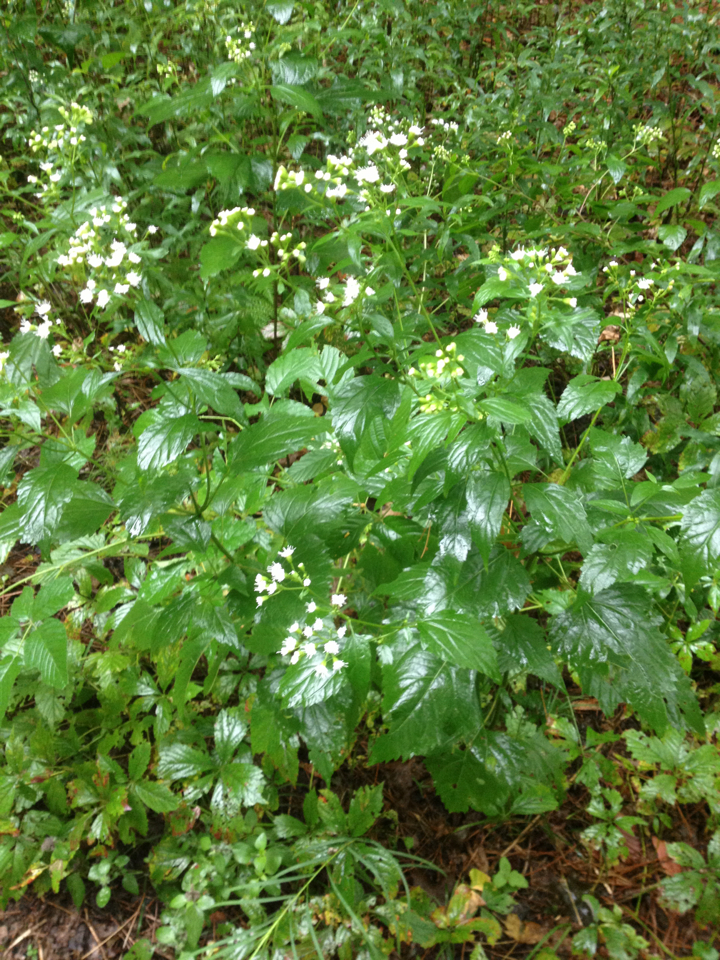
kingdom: Plantae
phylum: Tracheophyta
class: Magnoliopsida
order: Asterales
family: Asteraceae
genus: Ageratina
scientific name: Ageratina altissima
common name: White snakeroot
